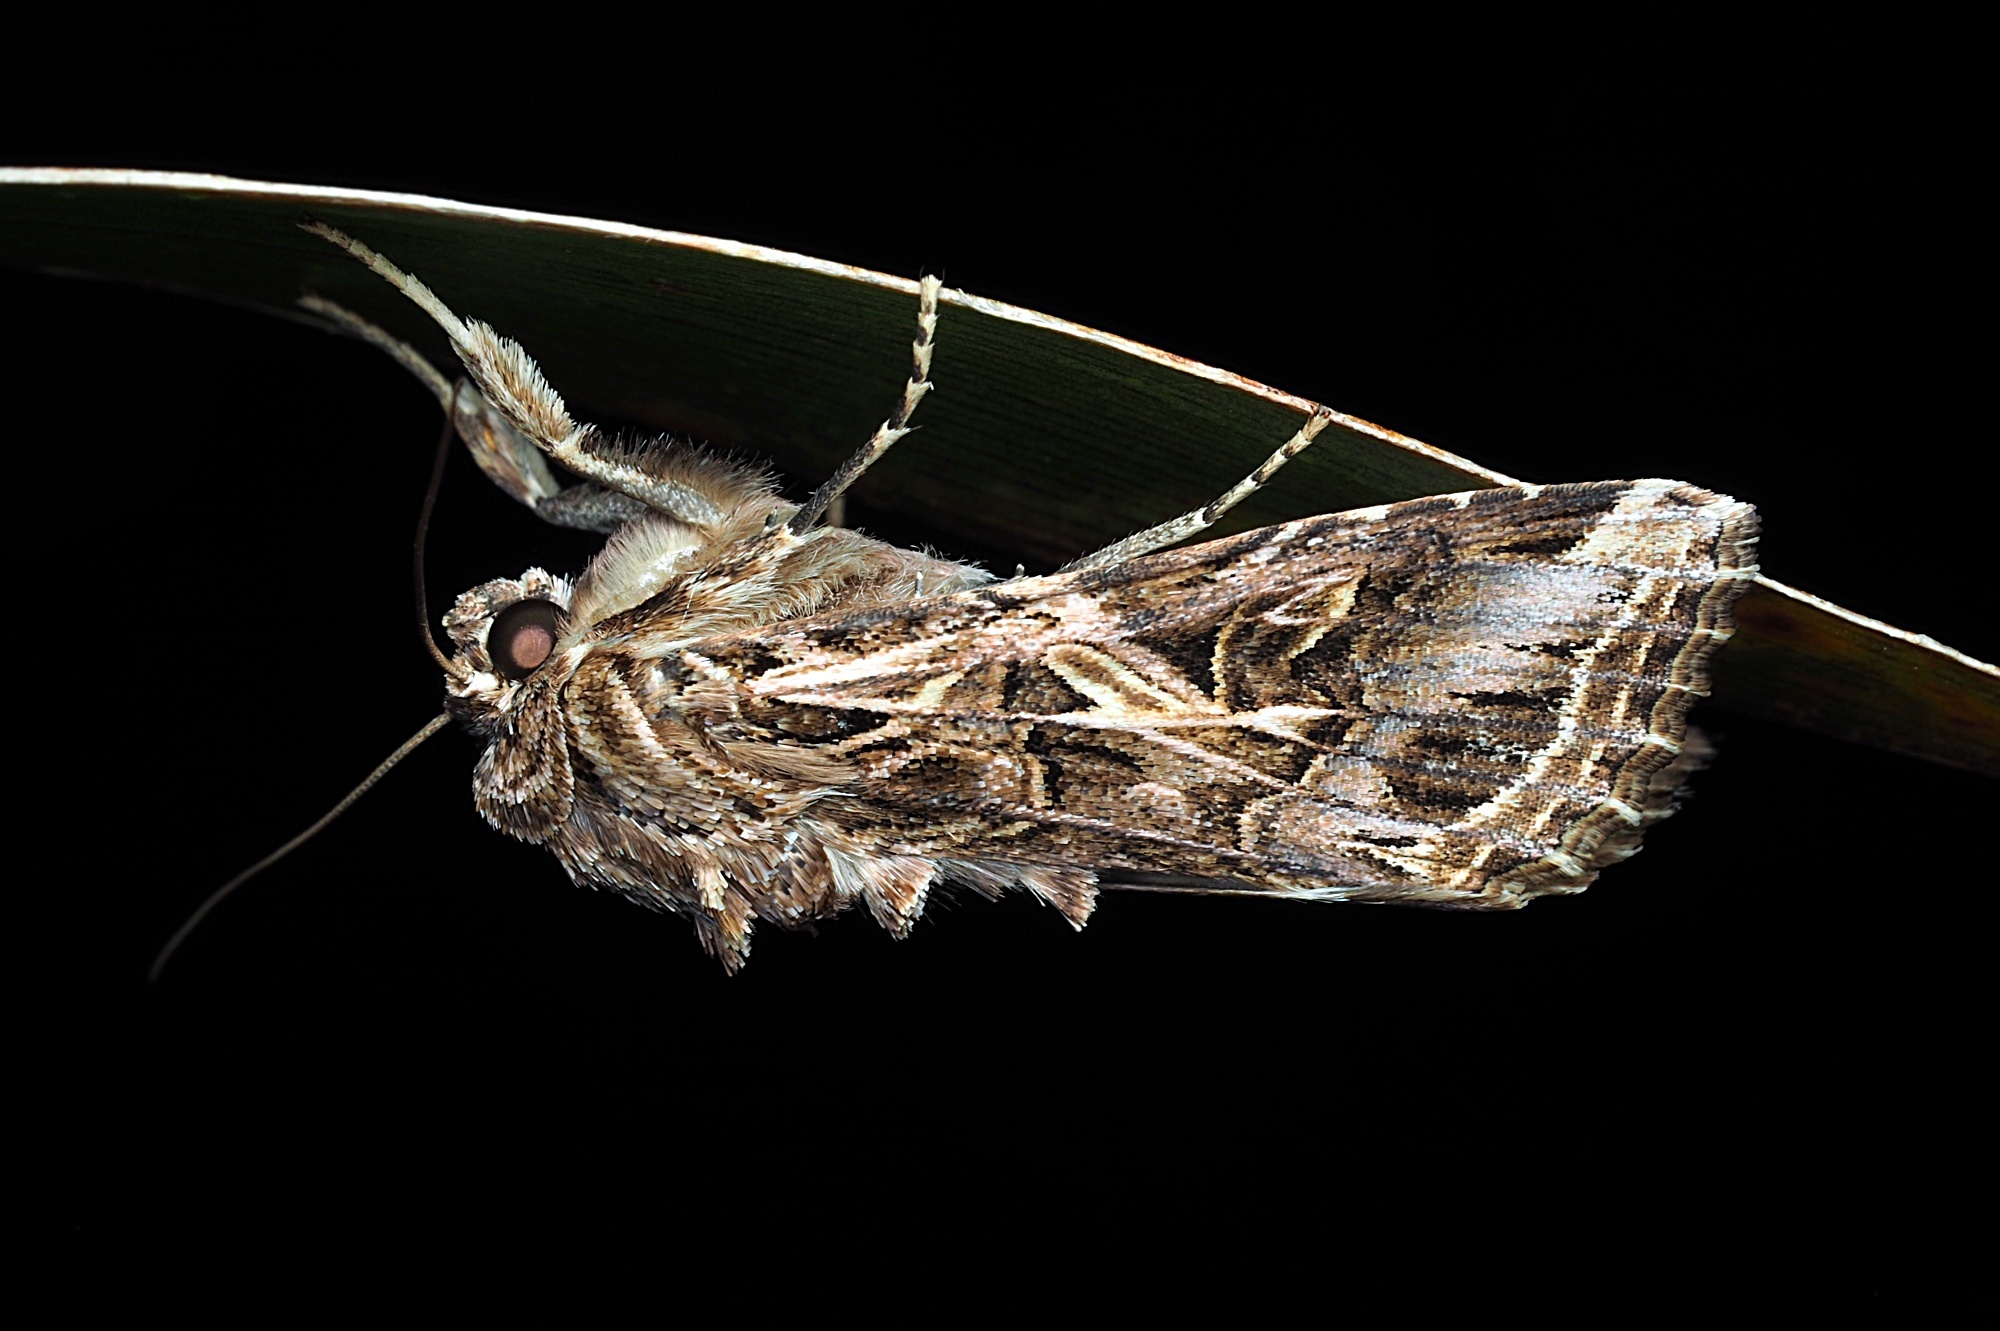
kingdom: Animalia
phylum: Arthropoda
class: Insecta
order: Lepidoptera
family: Noctuidae
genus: Spodoptera
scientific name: Spodoptera litura
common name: Asian cotton leafworm
